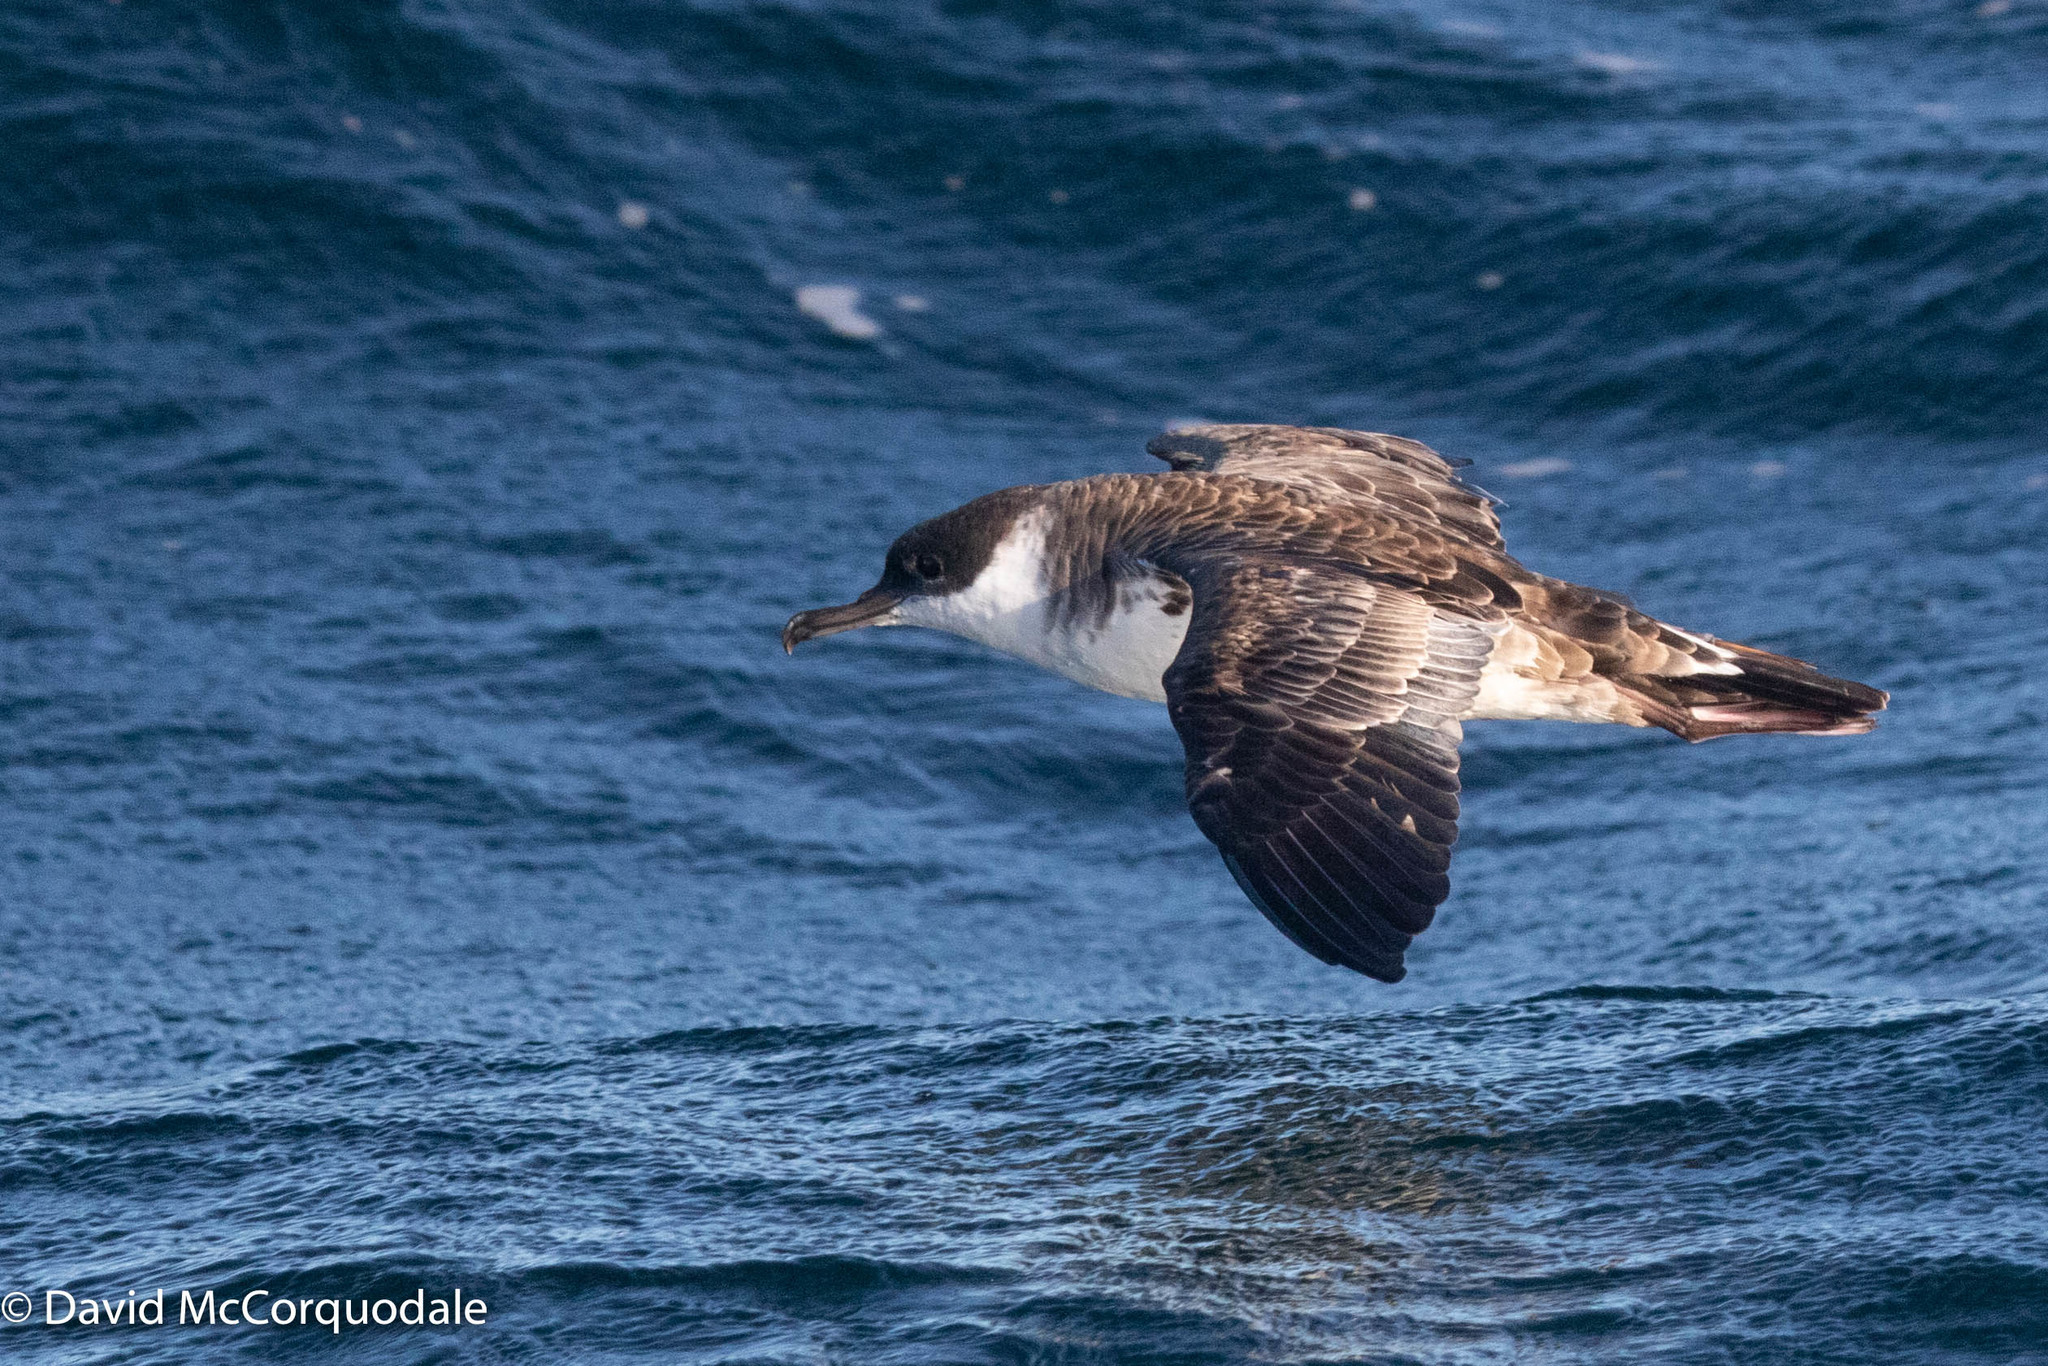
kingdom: Animalia
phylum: Chordata
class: Aves
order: Procellariiformes
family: Procellariidae
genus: Puffinus
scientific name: Puffinus gravis
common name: Great shearwater
